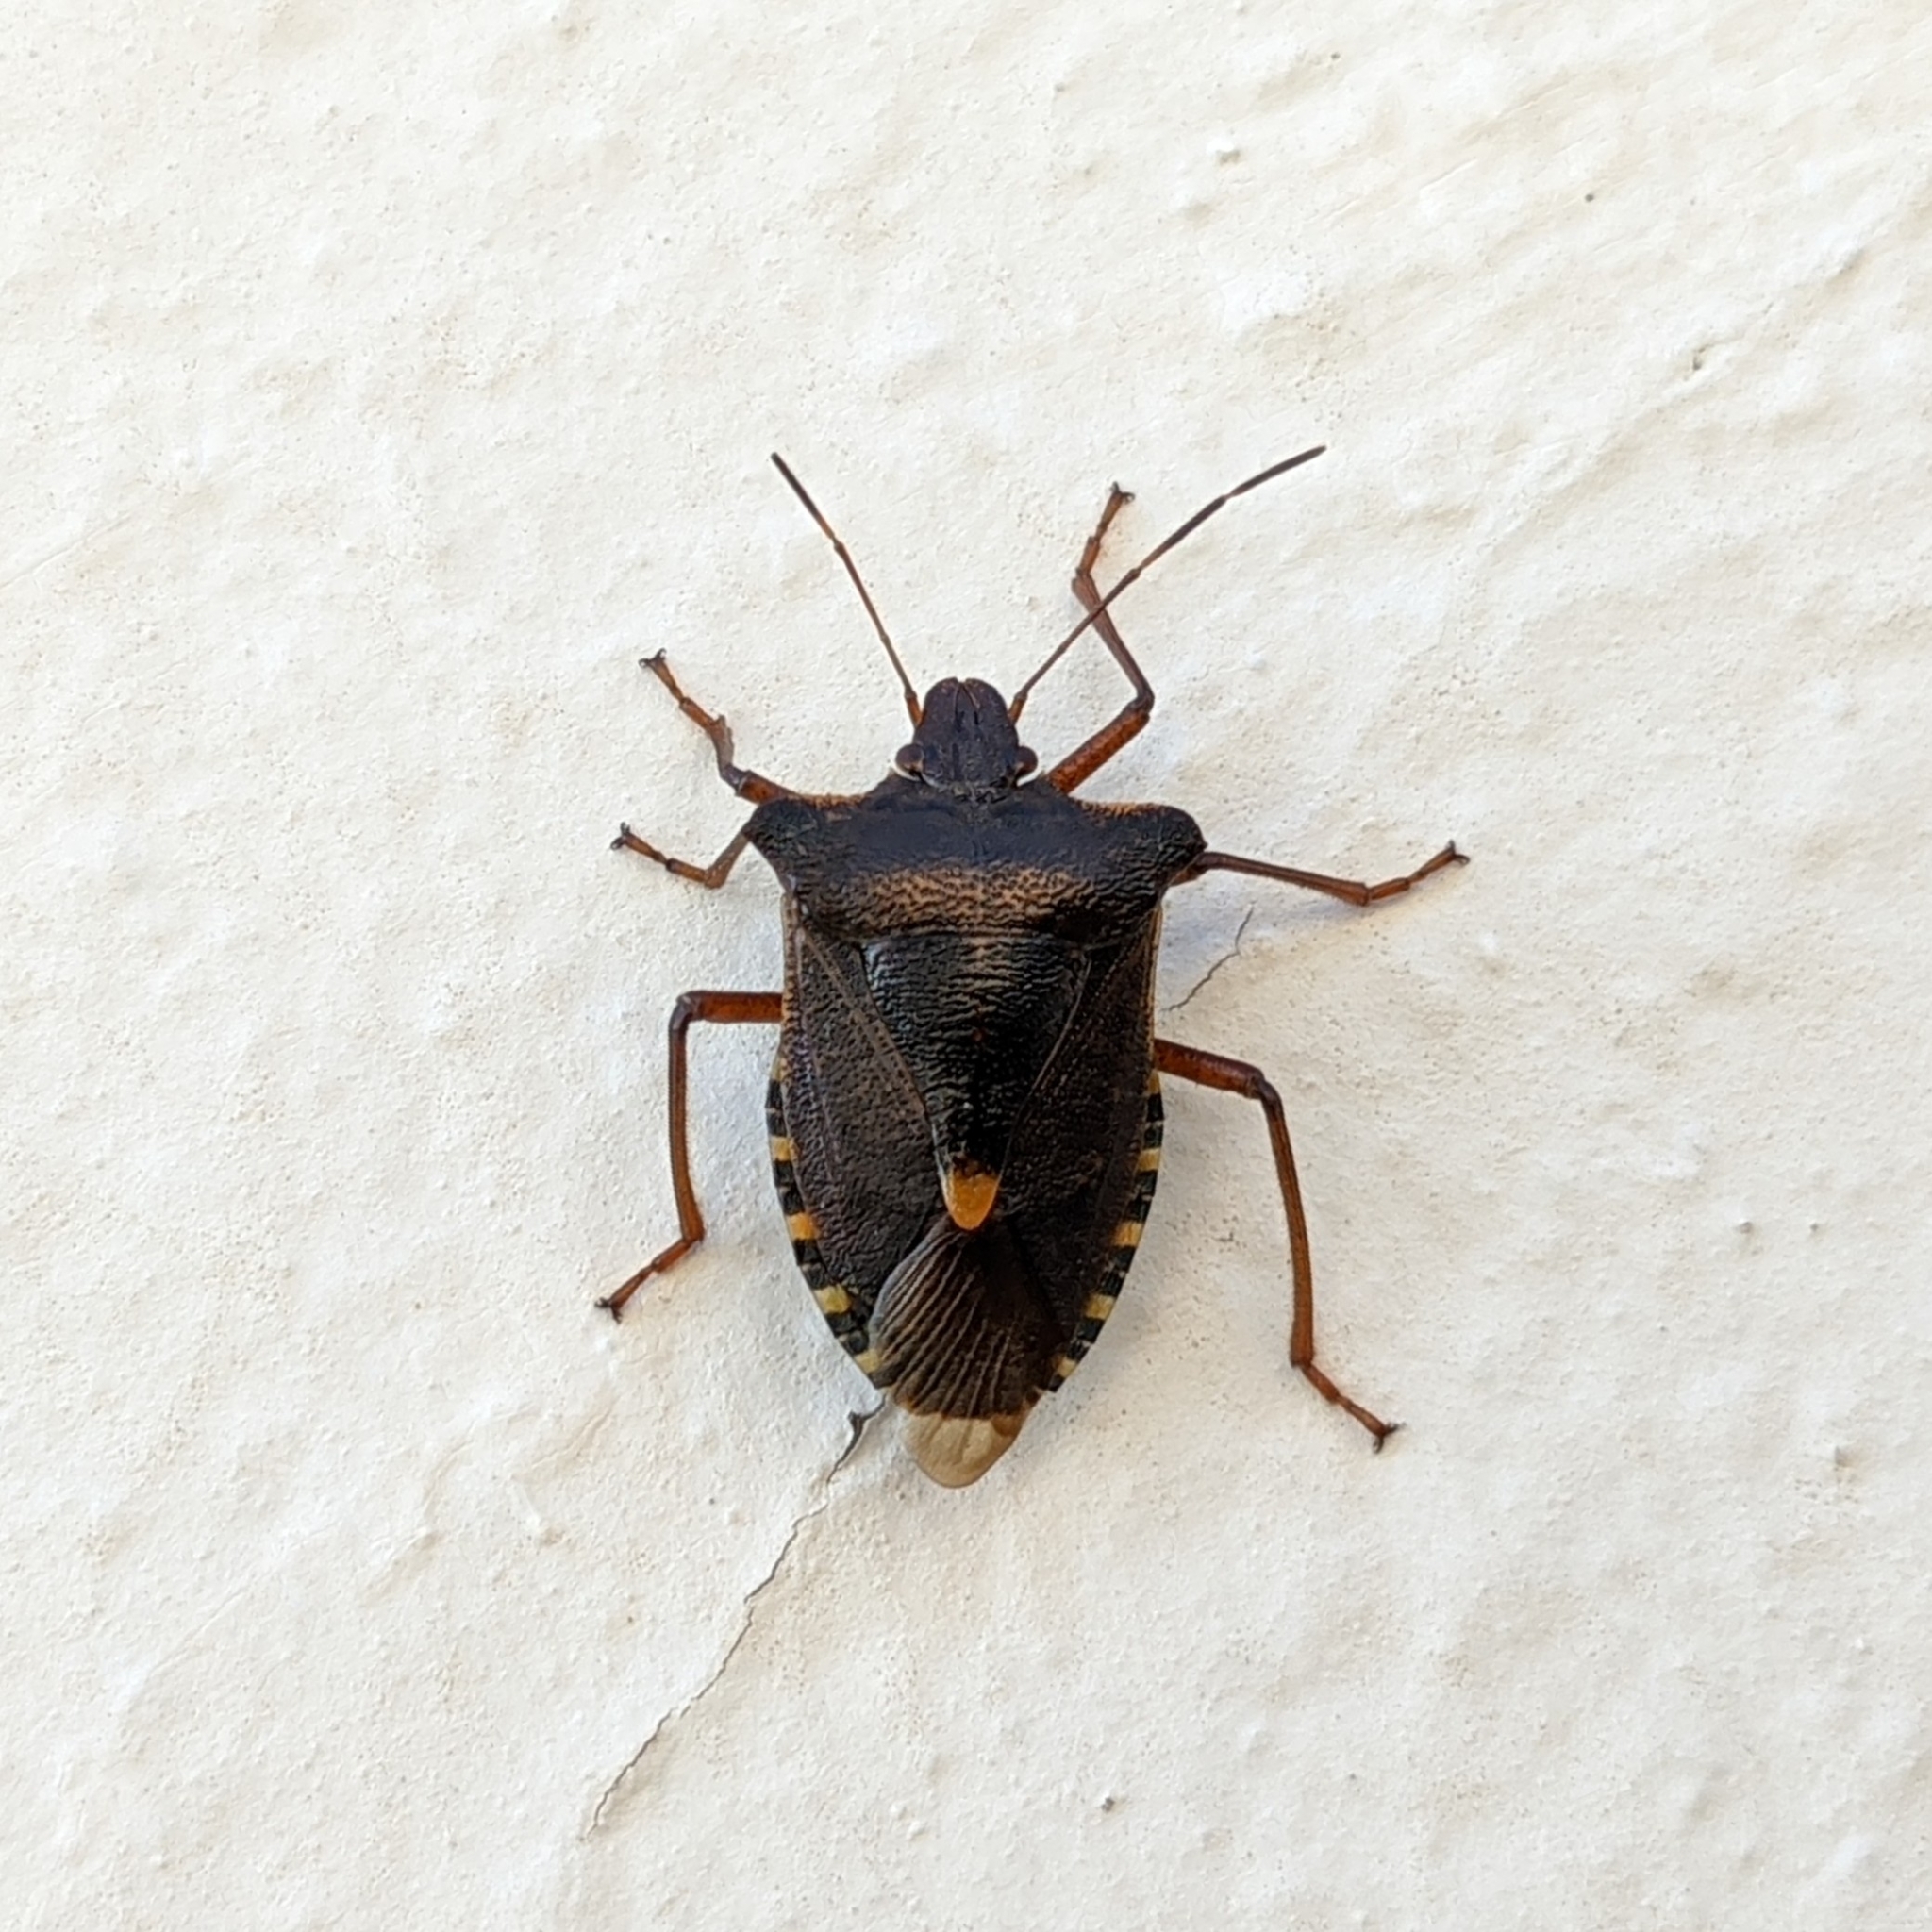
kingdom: Animalia
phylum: Arthropoda
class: Insecta
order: Hemiptera
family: Pentatomidae
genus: Pentatoma
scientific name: Pentatoma rufipes
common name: Forest bug
